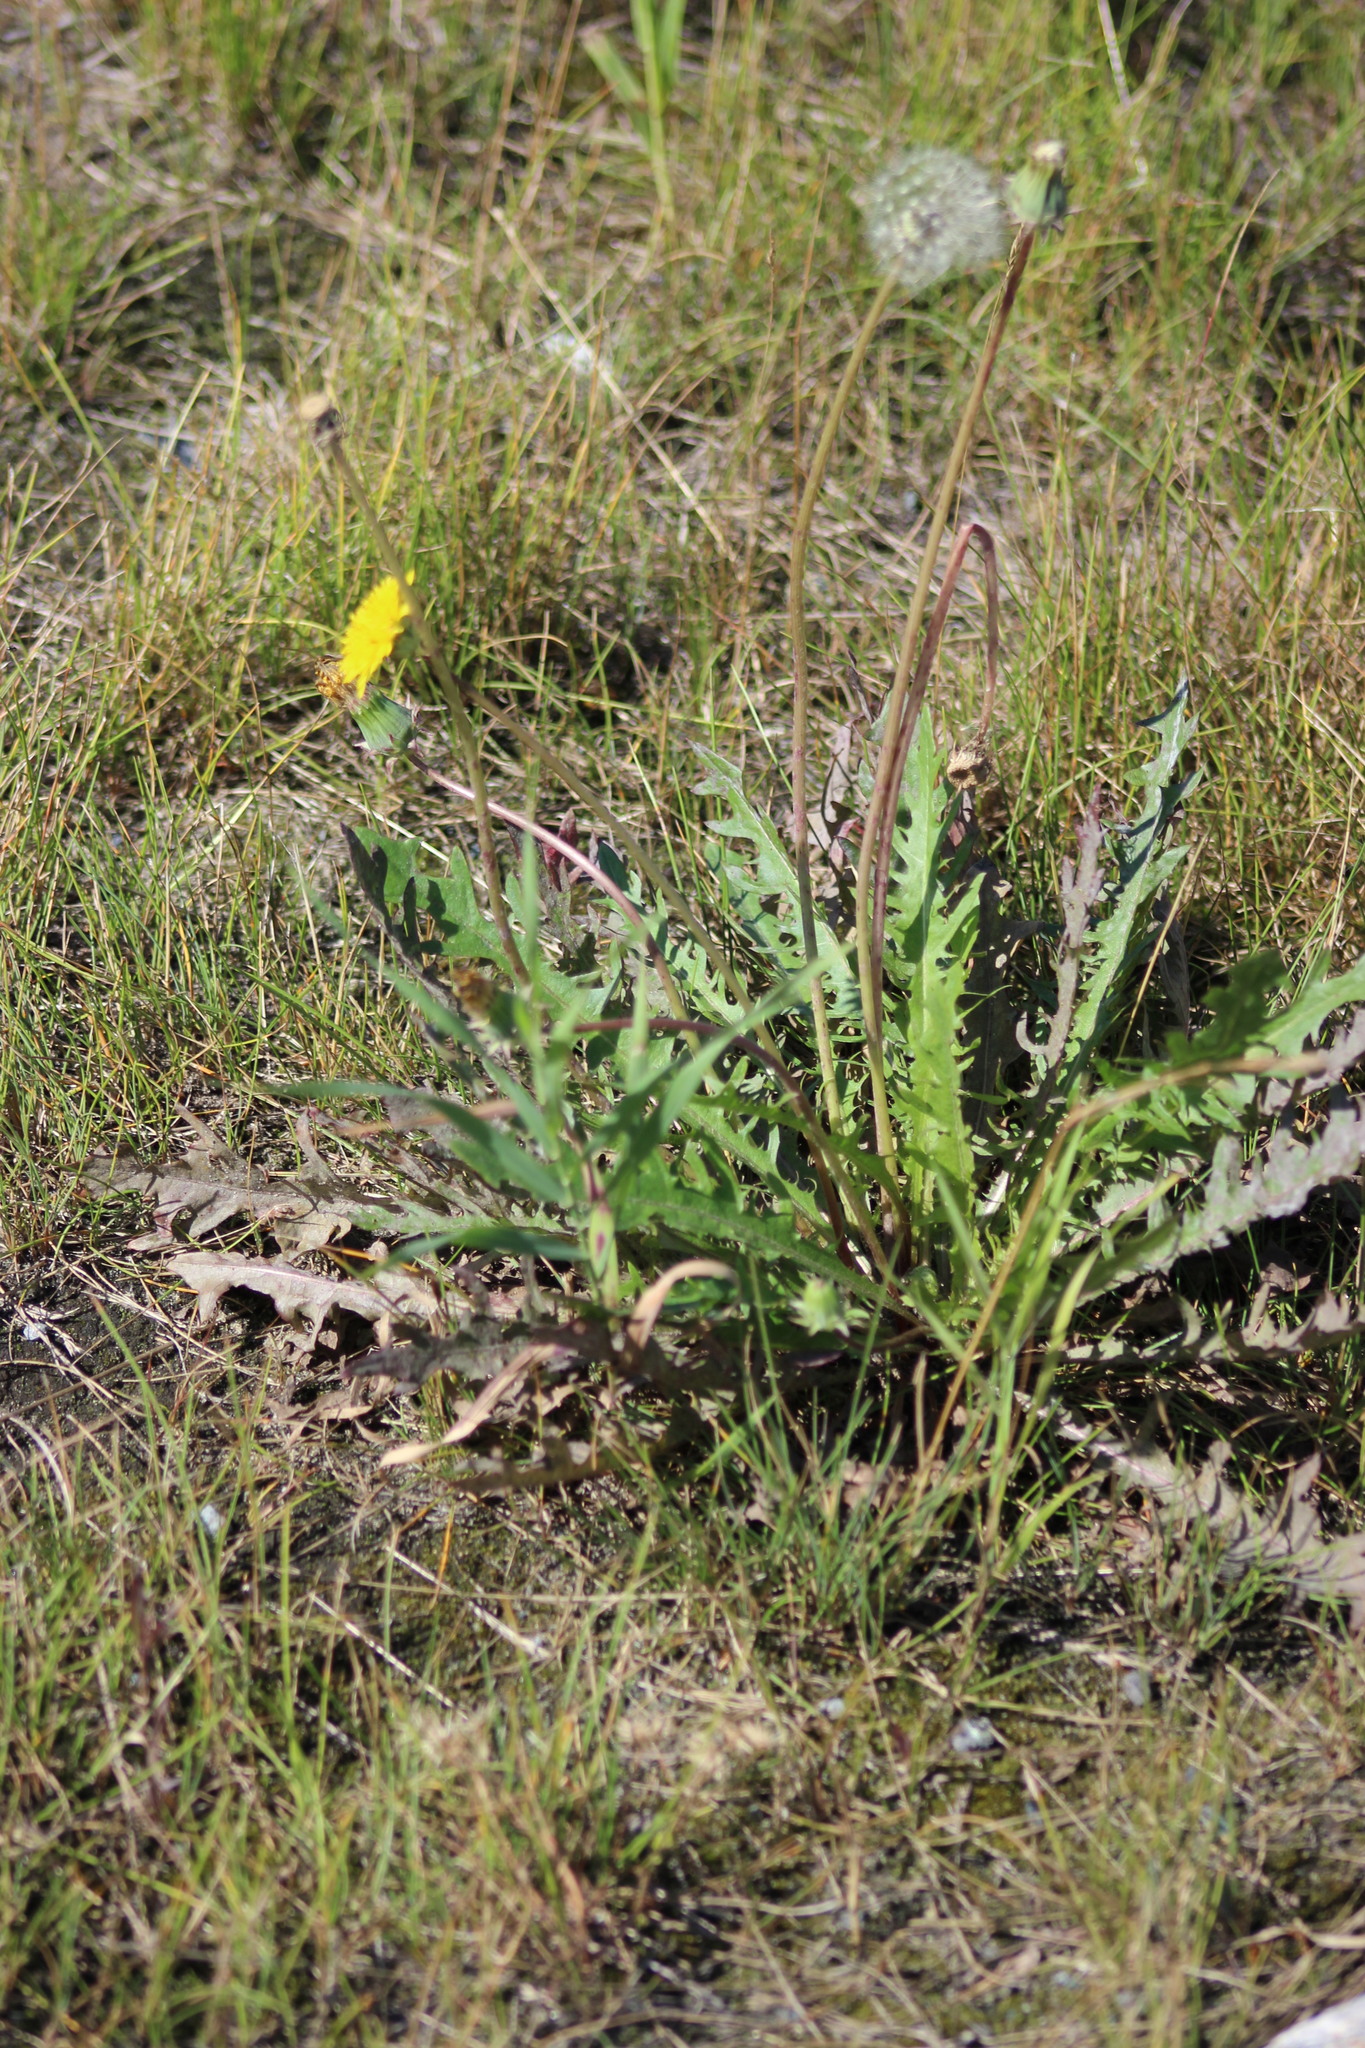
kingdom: Plantae
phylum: Tracheophyta
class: Magnoliopsida
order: Asterales
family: Asteraceae
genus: Taraxacum
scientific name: Taraxacum officinale
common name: Common dandelion
